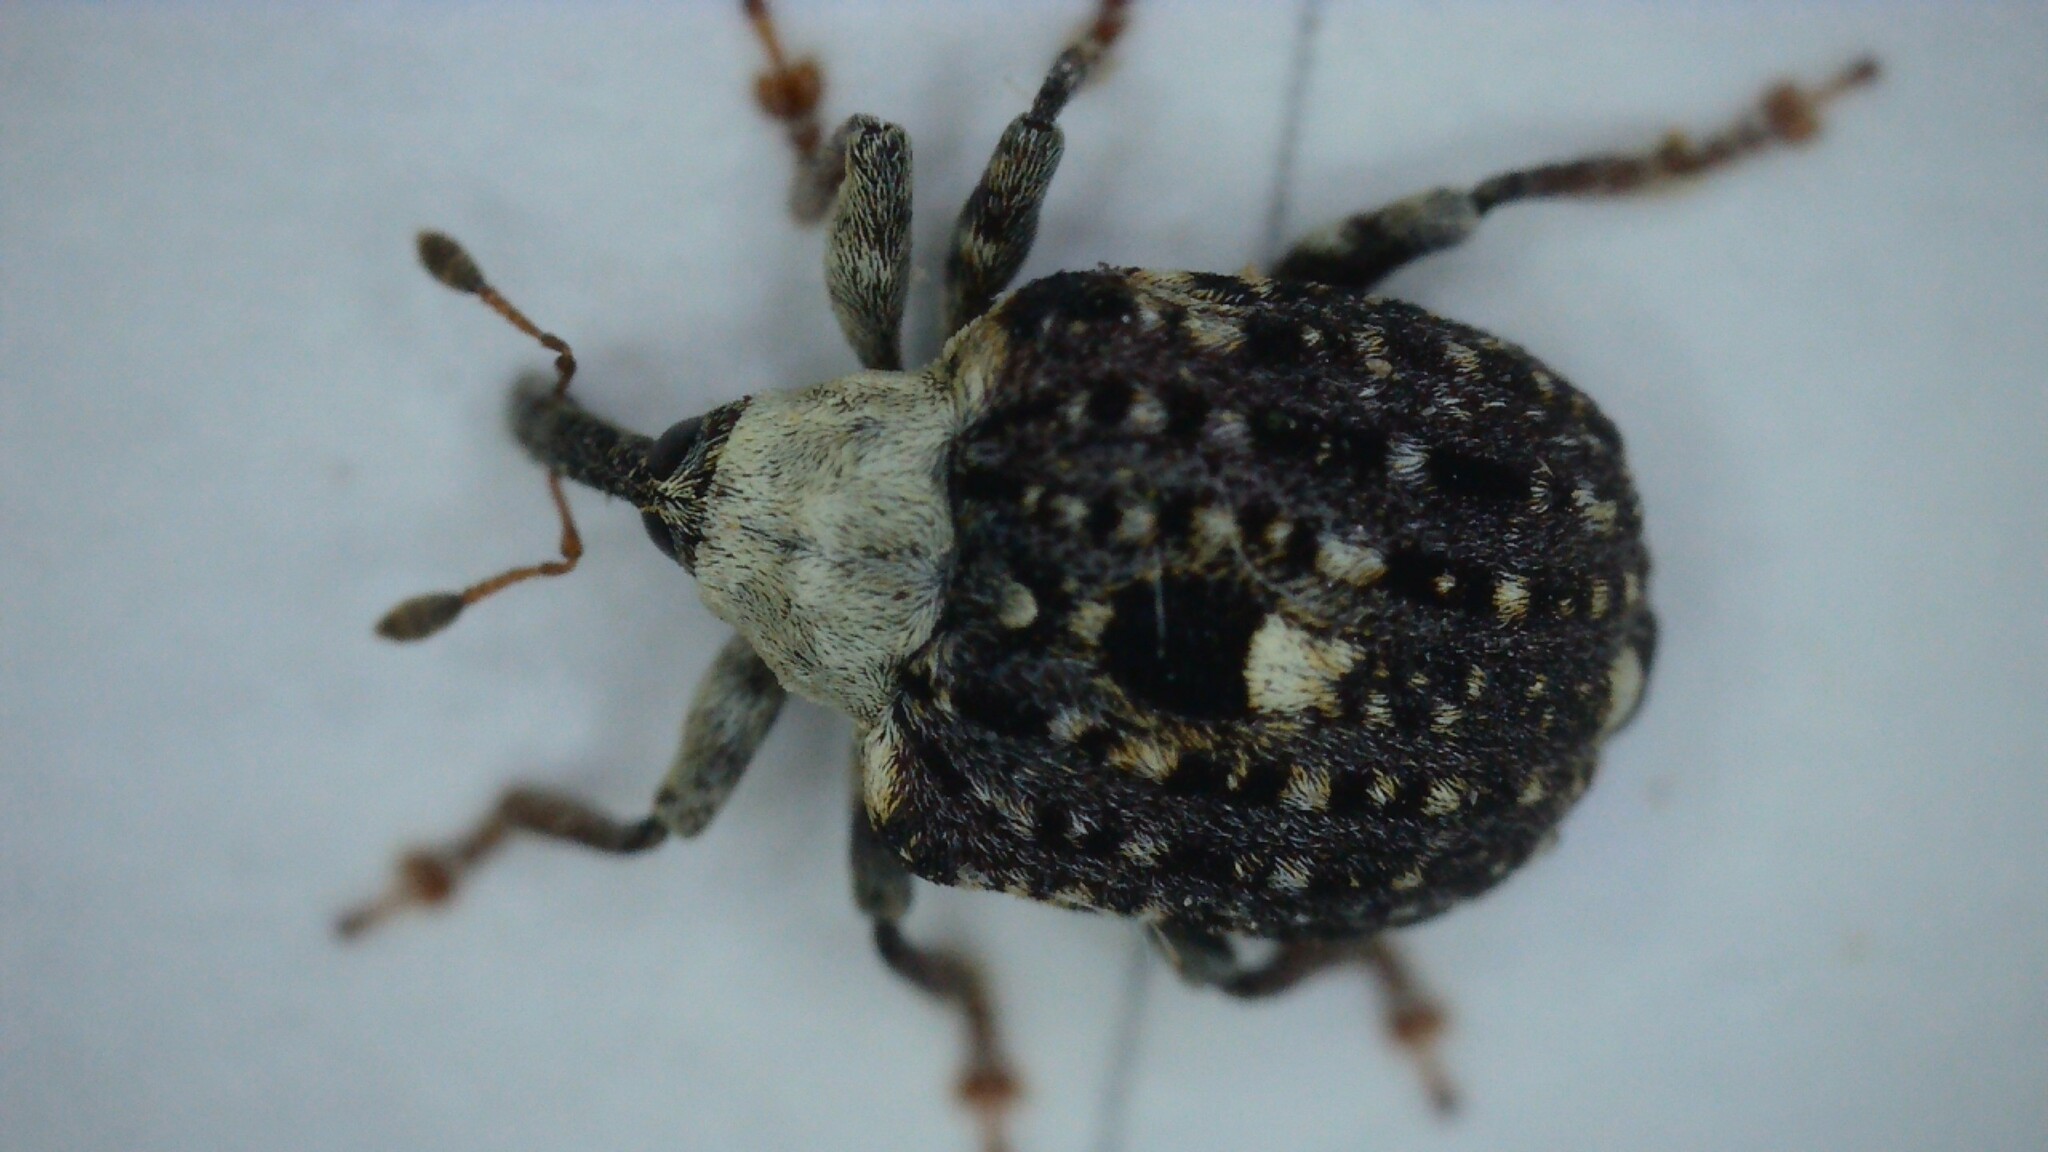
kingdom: Animalia
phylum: Arthropoda
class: Insecta
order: Coleoptera
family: Curculionidae
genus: Cionus
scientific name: Cionus scrophulariae
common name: Common figwort weevil
